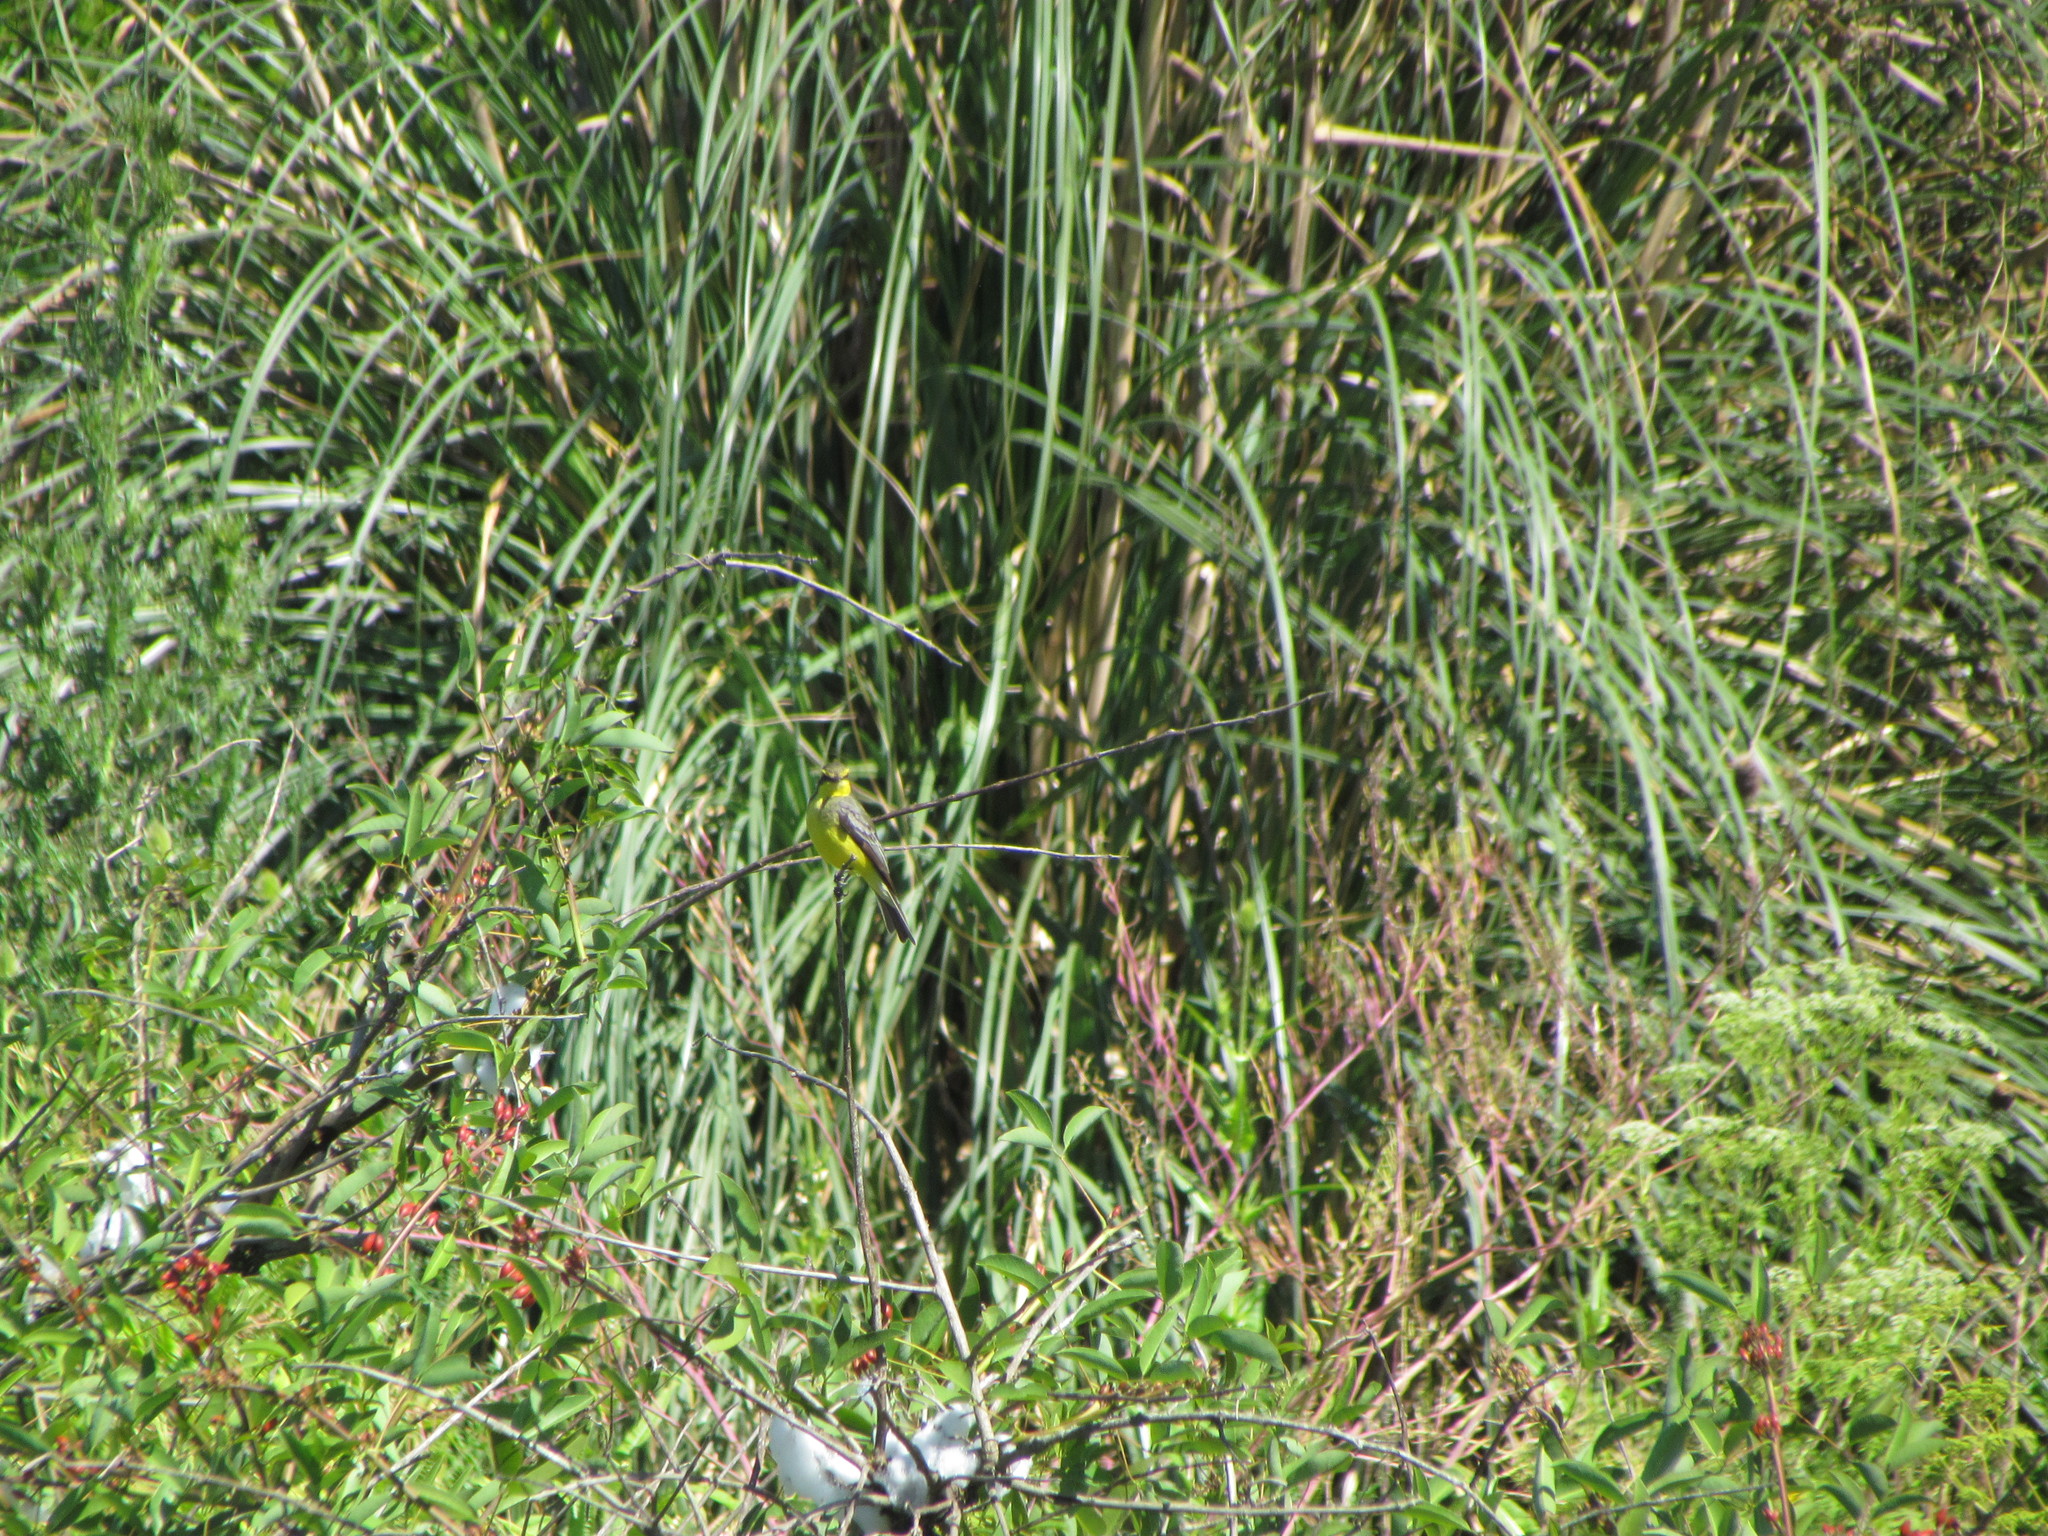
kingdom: Animalia
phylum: Chordata
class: Aves
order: Passeriformes
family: Tyrannidae
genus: Satrapa
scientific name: Satrapa icterophrys
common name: Yellow-browed tyrant
